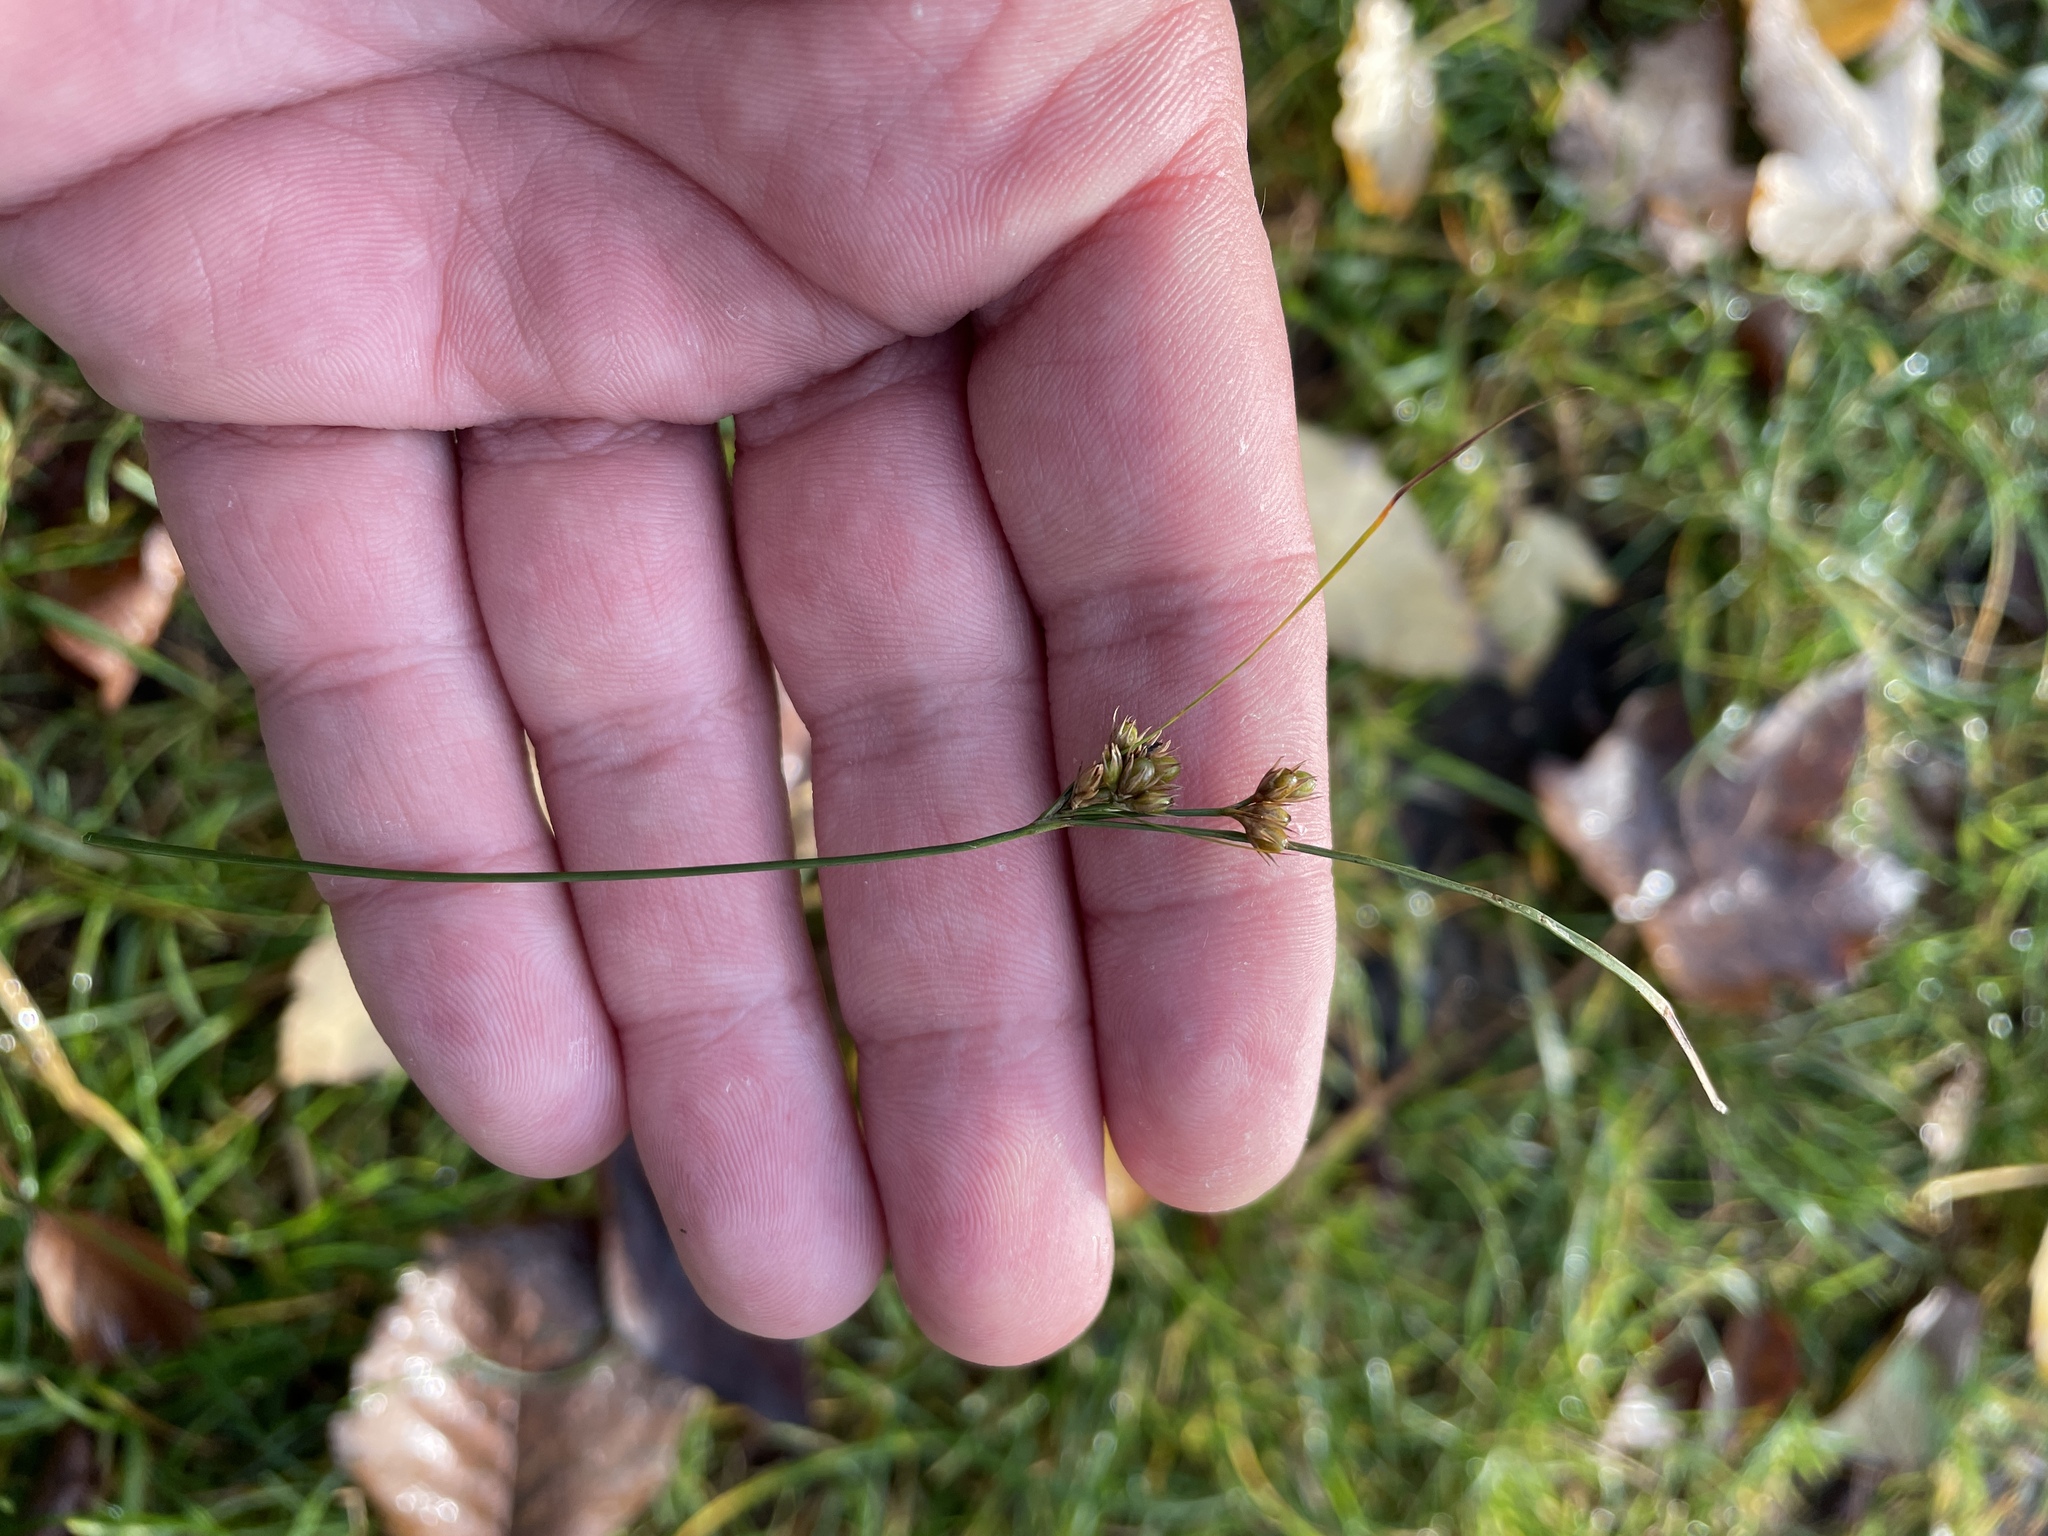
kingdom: Plantae
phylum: Tracheophyta
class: Liliopsida
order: Poales
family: Juncaceae
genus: Juncus
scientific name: Juncus tenuis
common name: Slender rush
